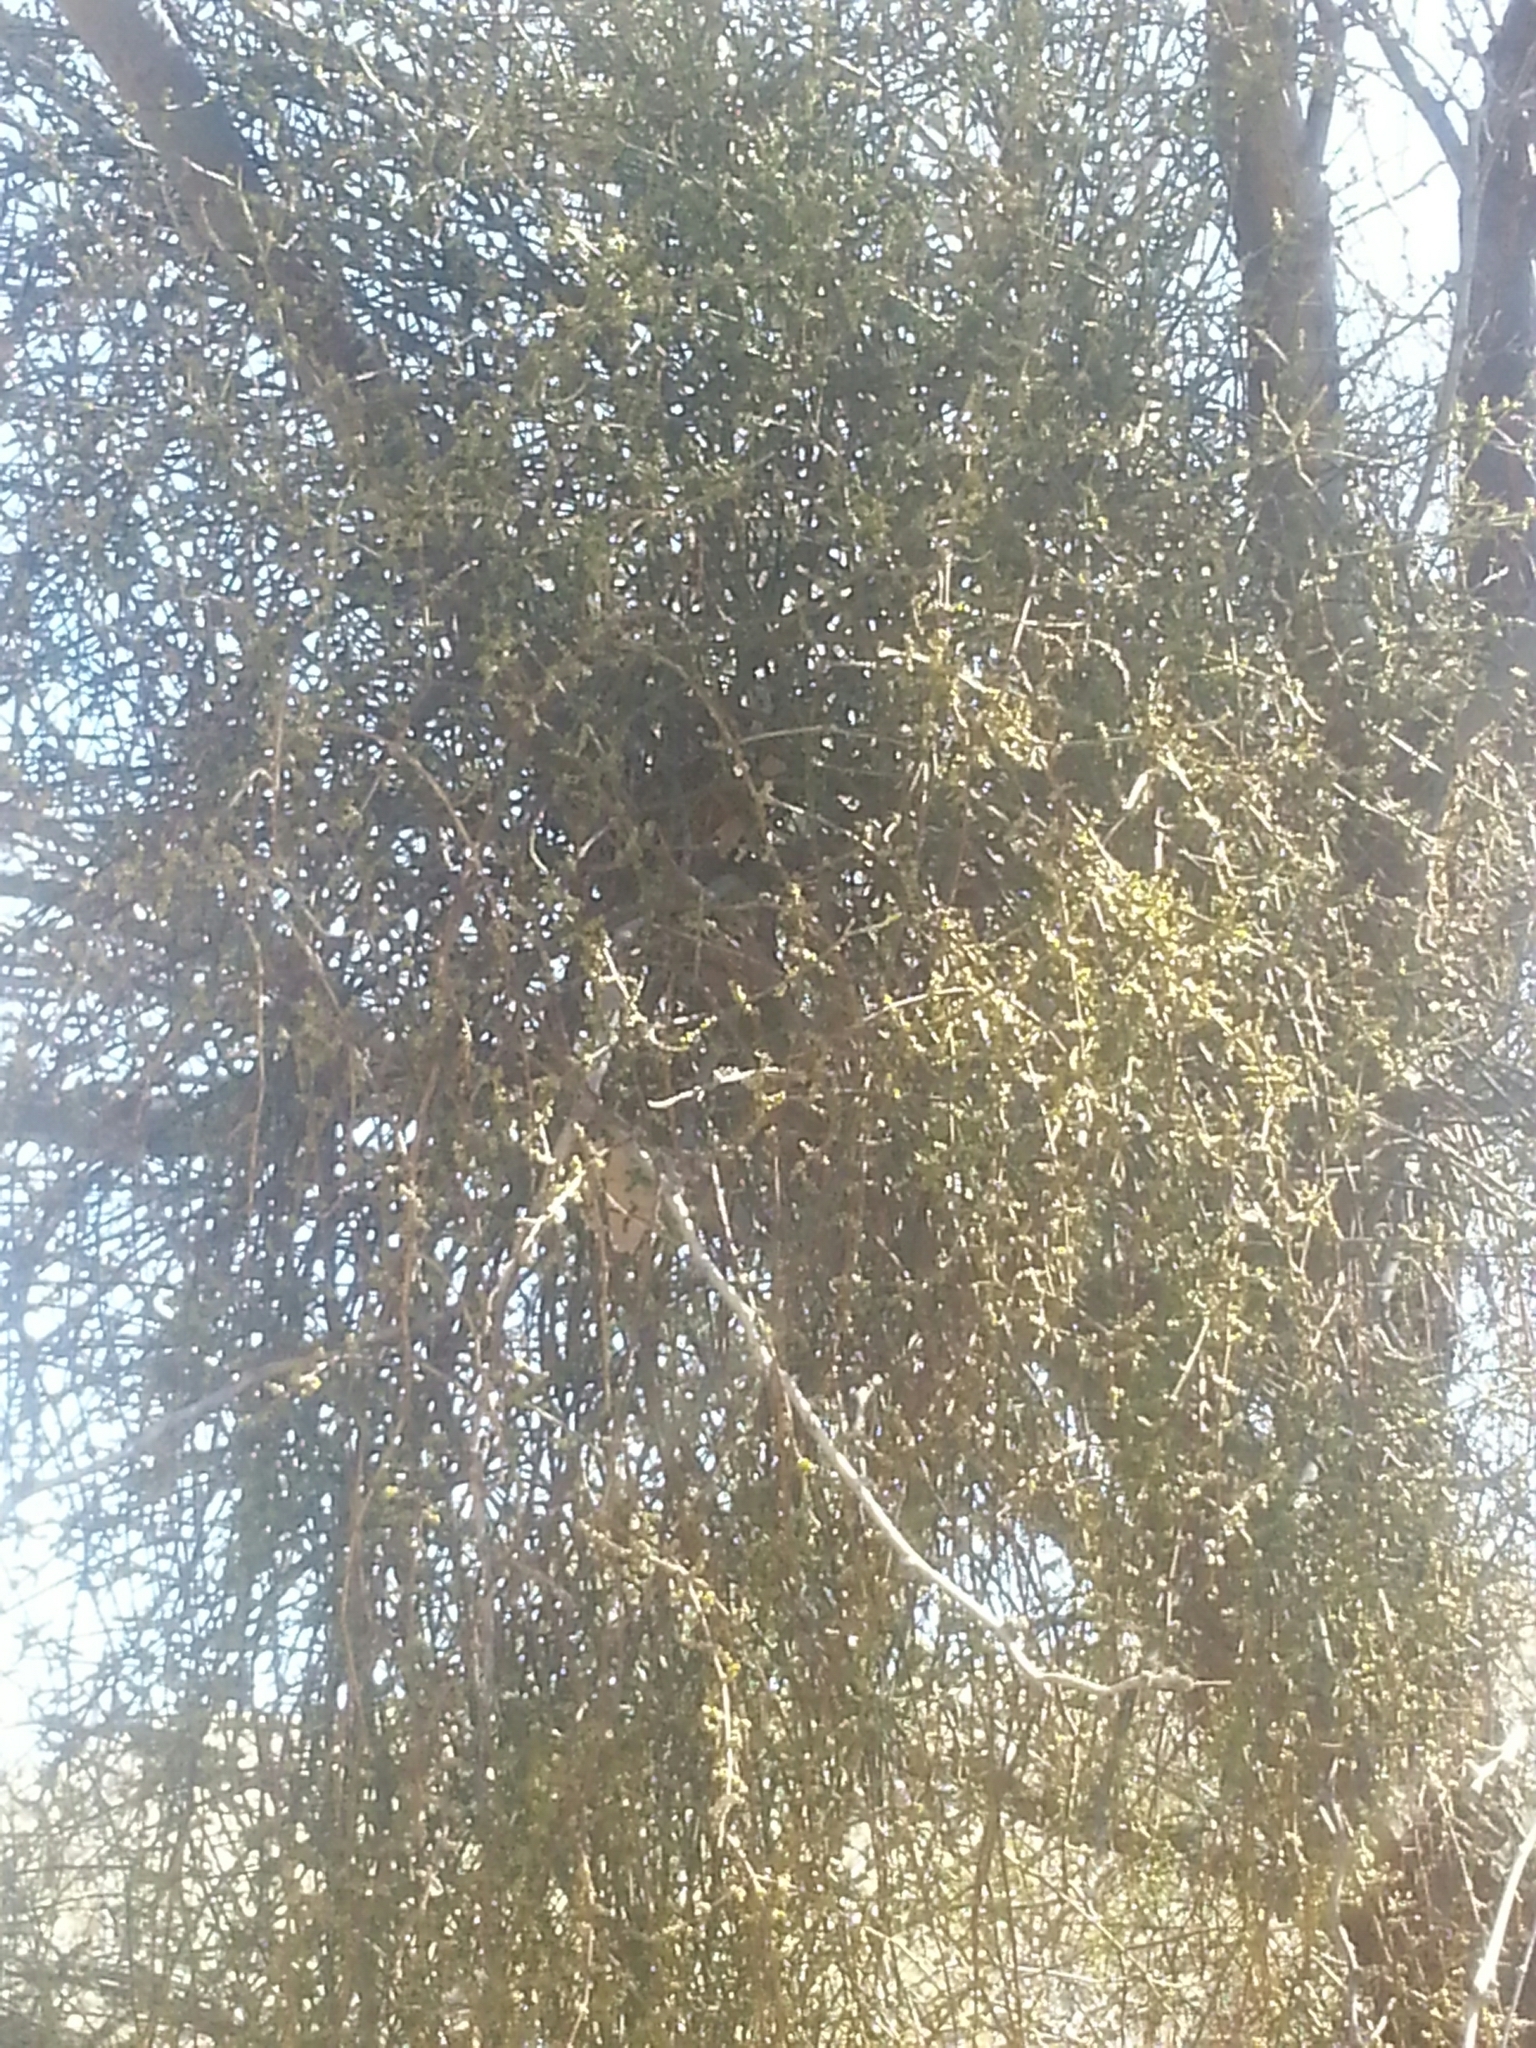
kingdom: Plantae
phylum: Tracheophyta
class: Magnoliopsida
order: Santalales
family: Viscaceae
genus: Phoradendron
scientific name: Phoradendron californicum
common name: Acacia mistletoe
